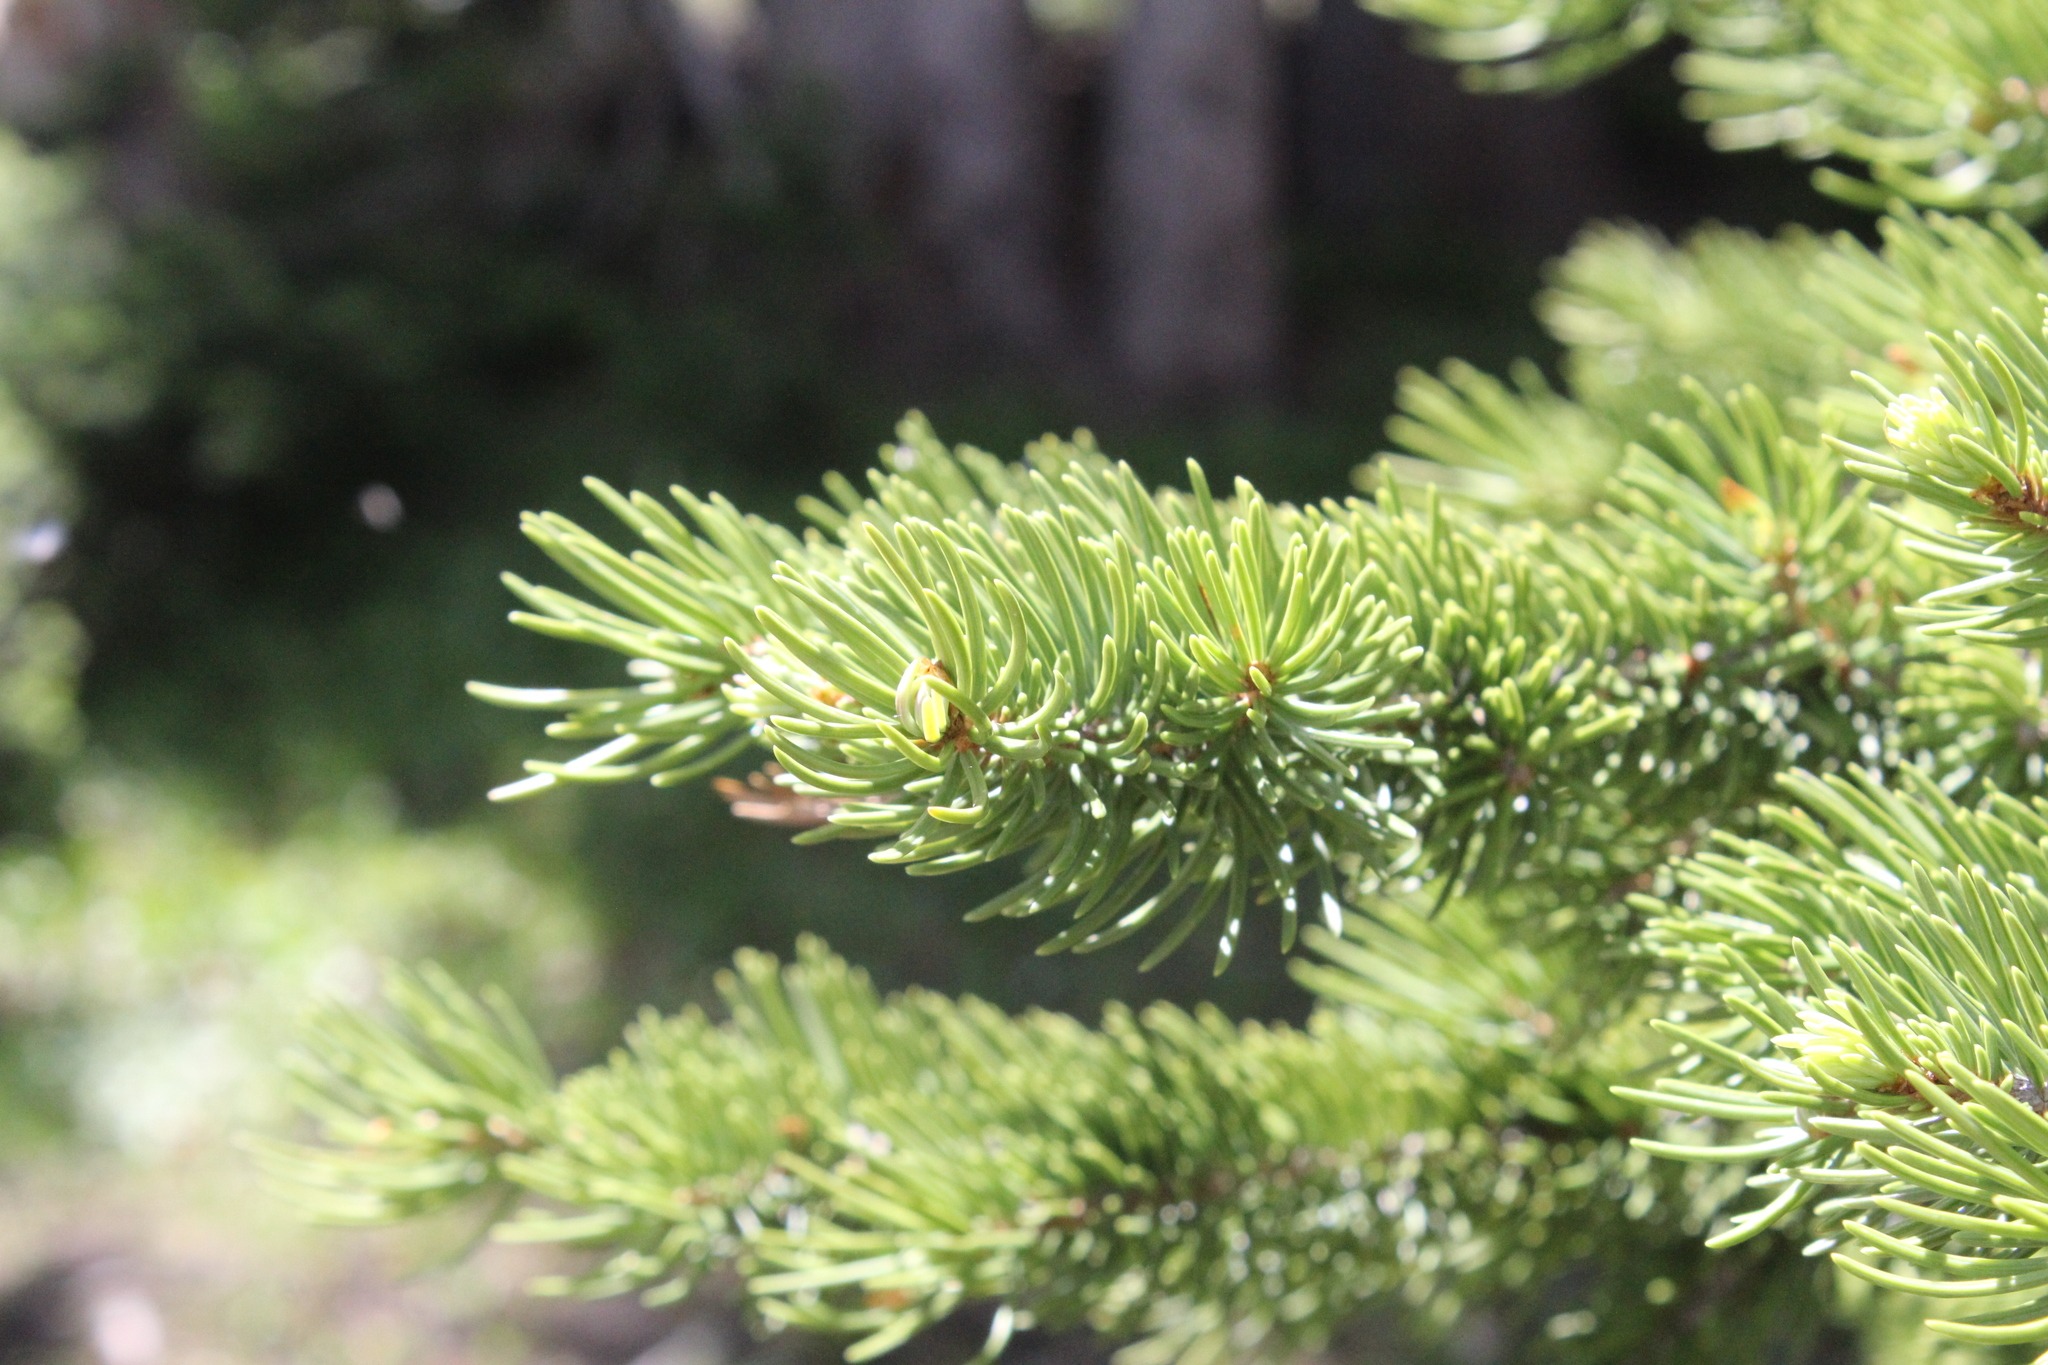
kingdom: Plantae
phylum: Tracheophyta
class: Pinopsida
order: Pinales
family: Pinaceae
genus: Picea
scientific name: Picea engelmannii
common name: Engelmann spruce
